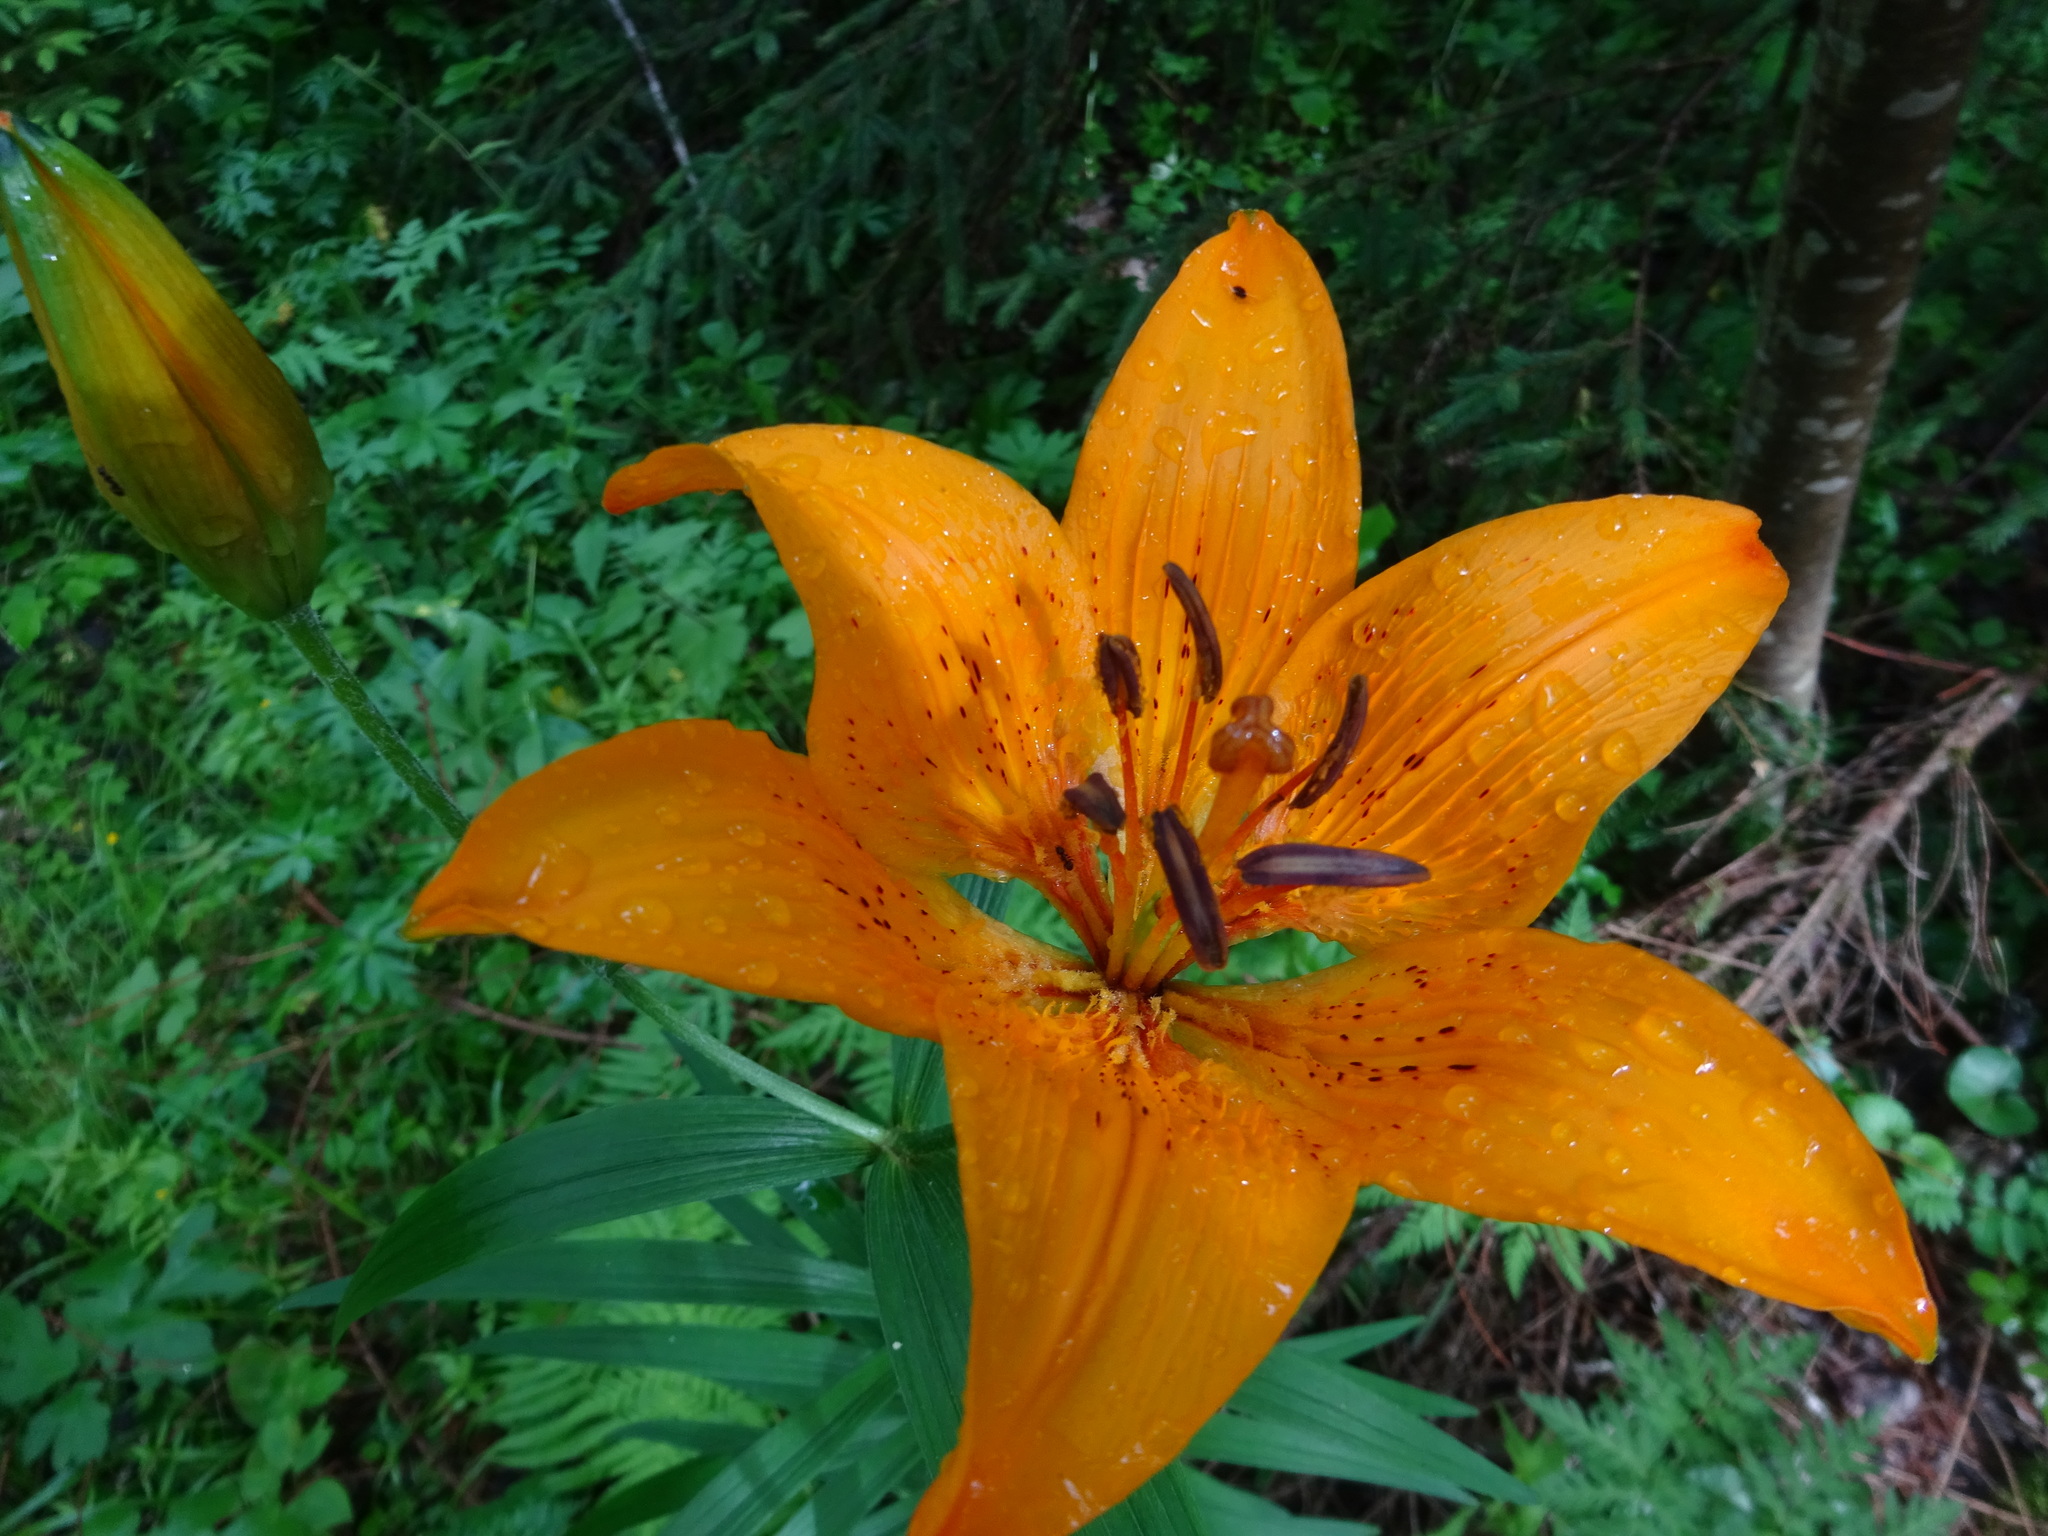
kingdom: Plantae
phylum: Tracheophyta
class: Liliopsida
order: Liliales
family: Liliaceae
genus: Lilium
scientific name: Lilium bulbiferum
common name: Orange lily
